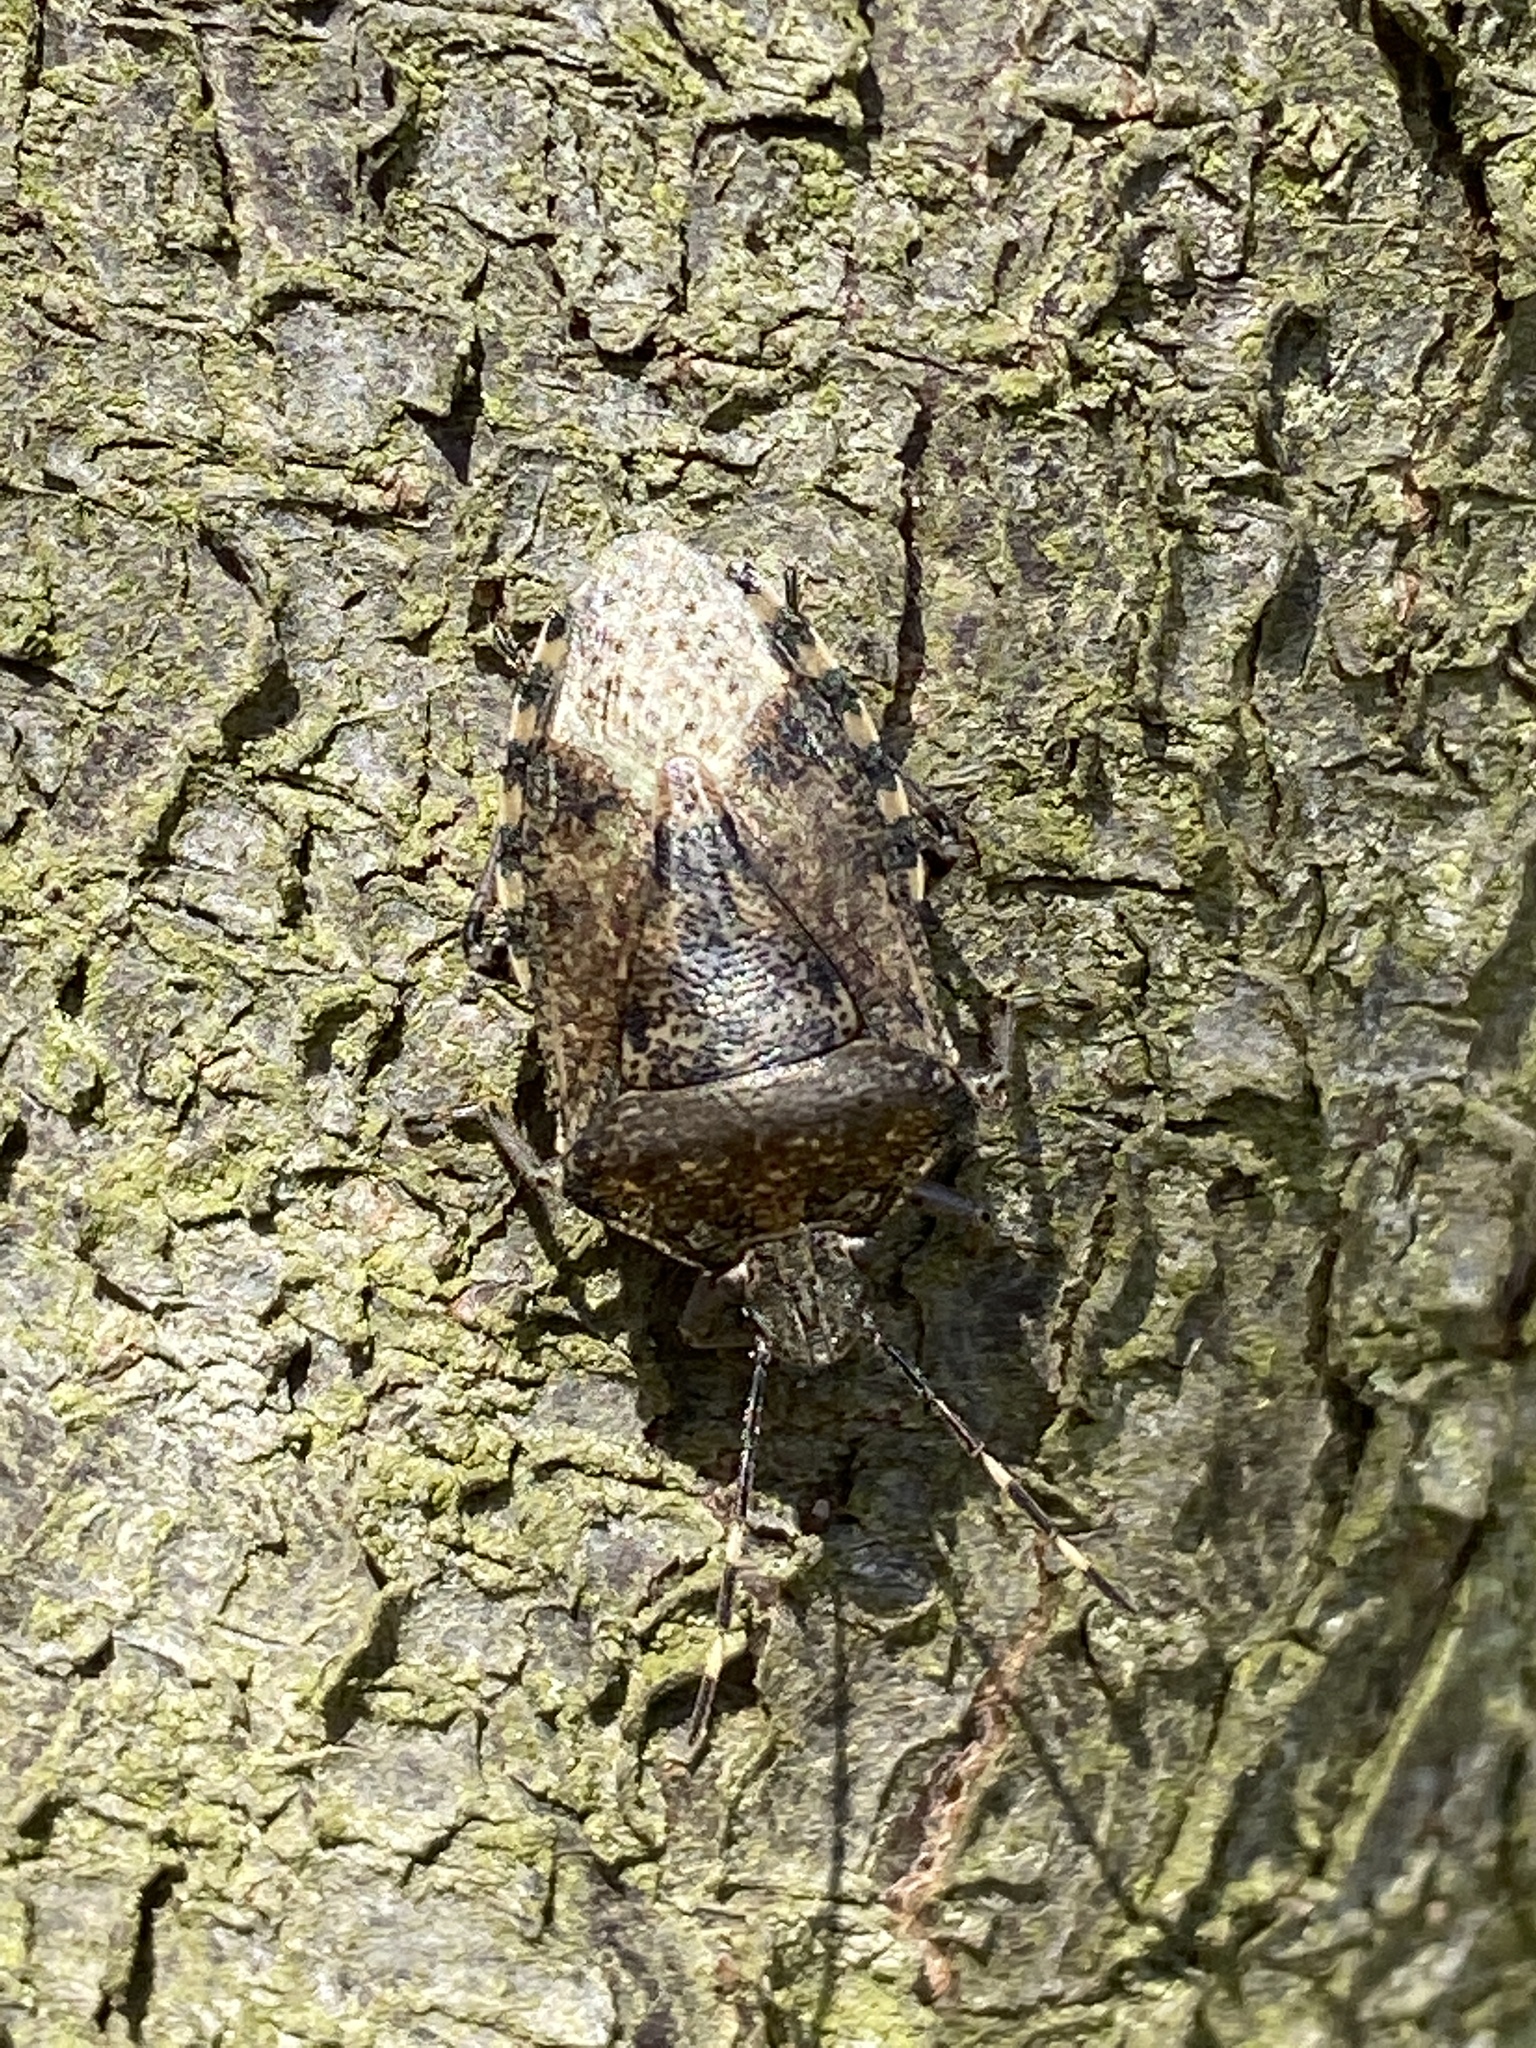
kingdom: Animalia
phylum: Arthropoda
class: Insecta
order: Hemiptera
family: Pentatomidae
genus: Rhaphigaster
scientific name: Rhaphigaster nebulosa
